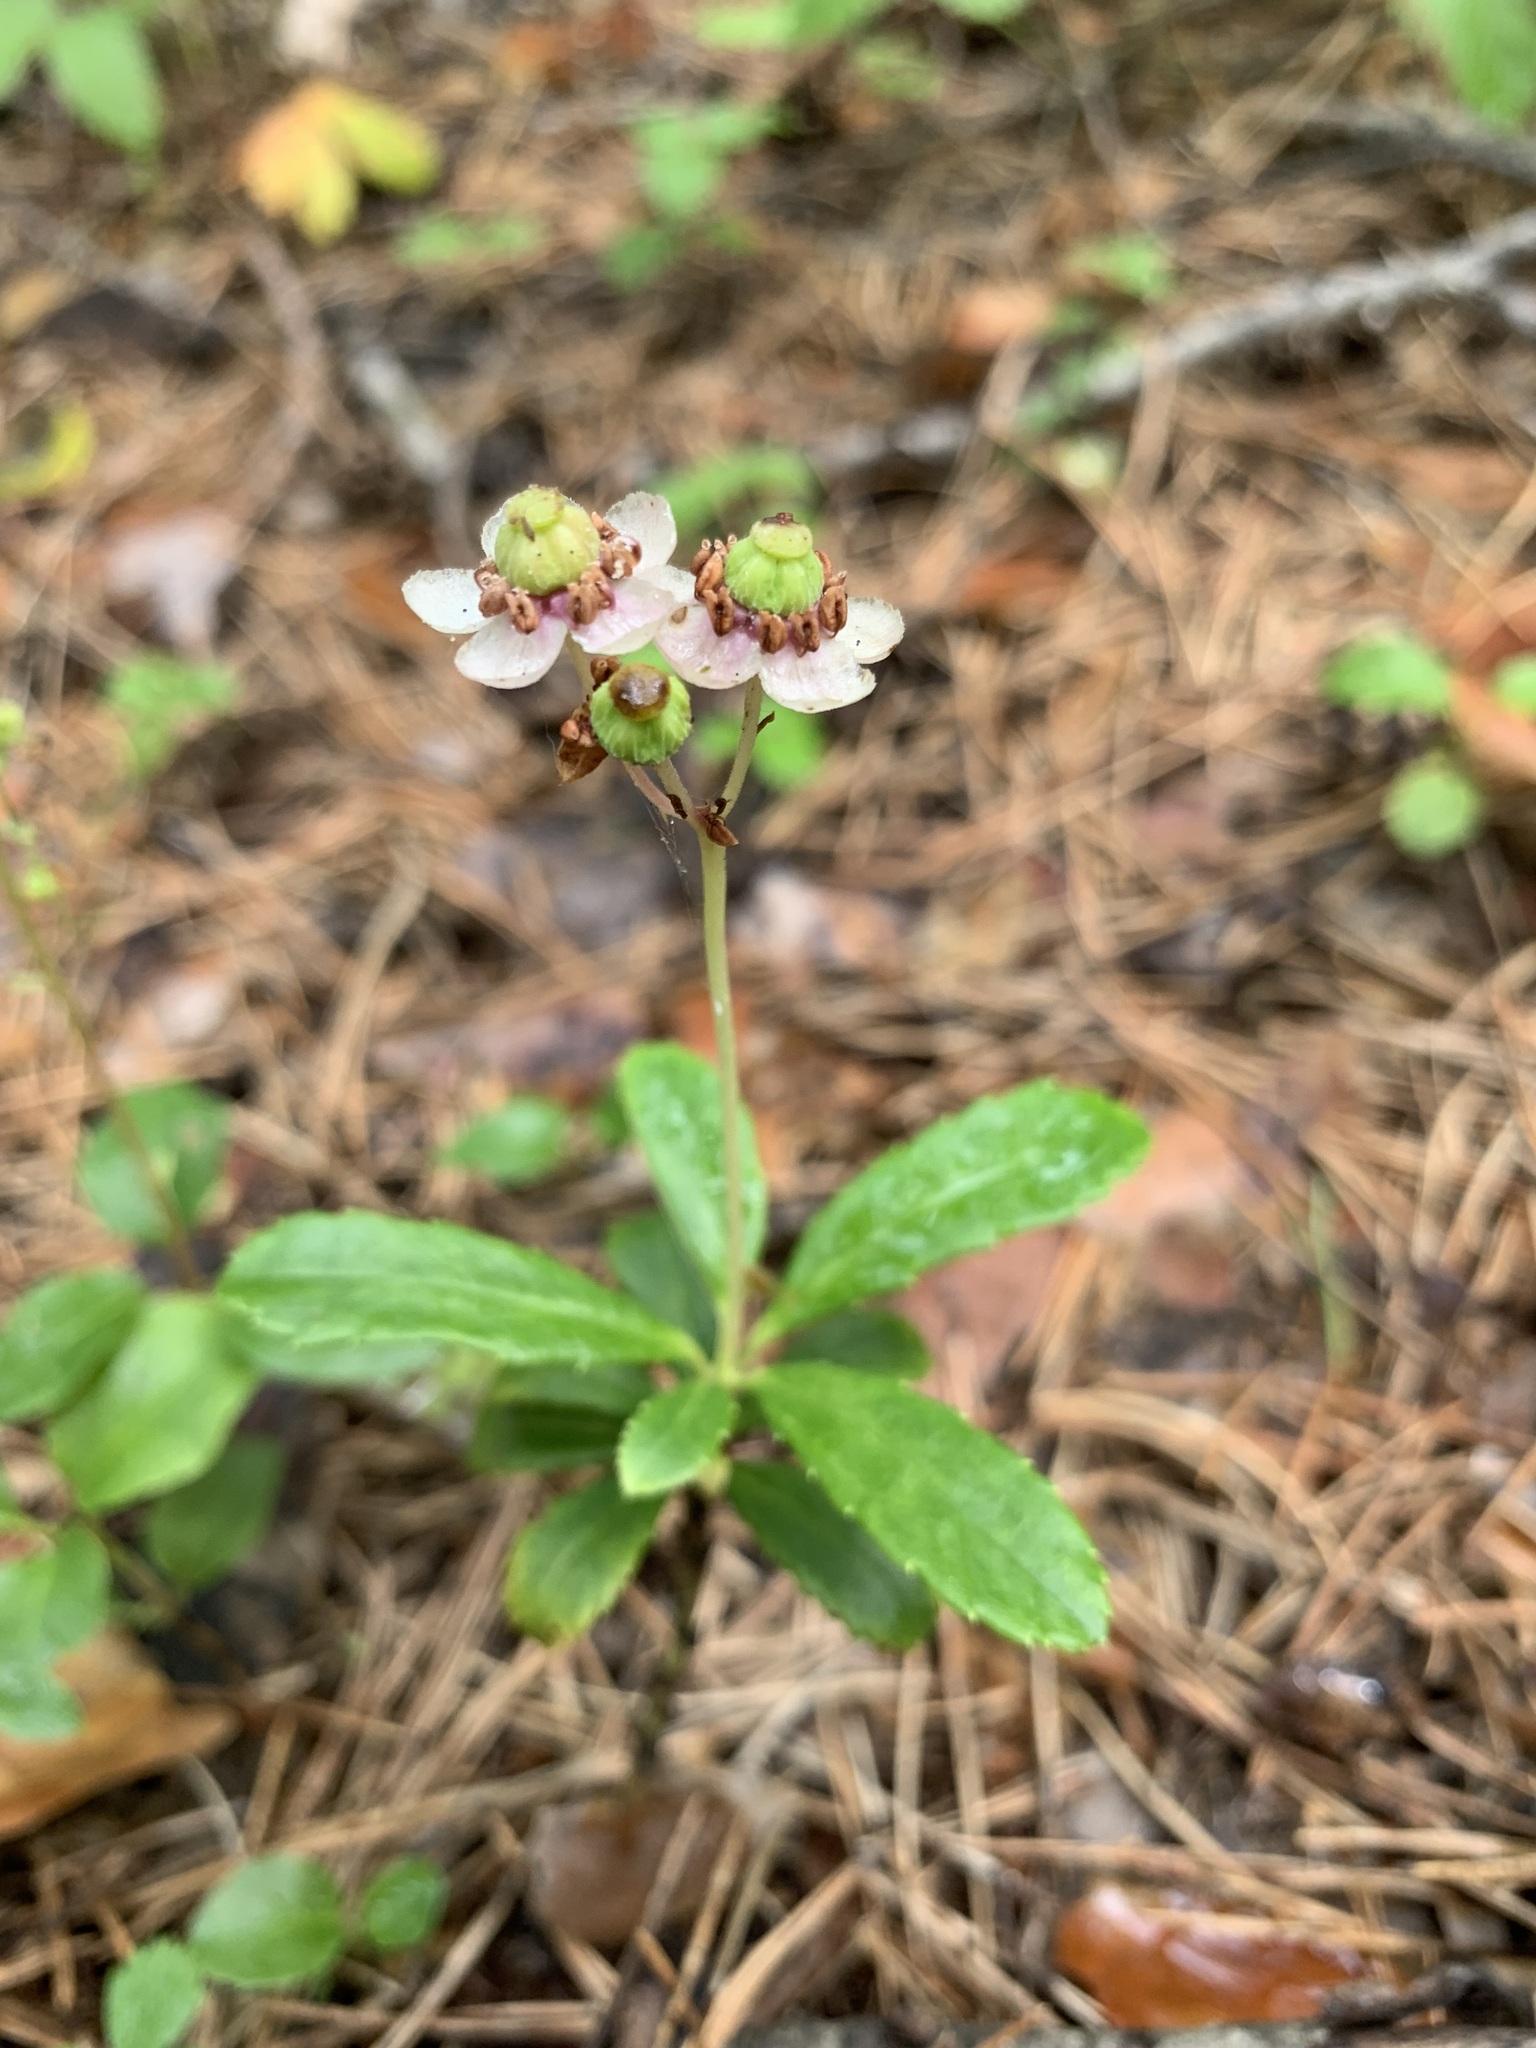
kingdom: Plantae
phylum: Tracheophyta
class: Magnoliopsida
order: Ericales
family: Ericaceae
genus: Chimaphila
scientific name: Chimaphila umbellata
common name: Pipsissewa
